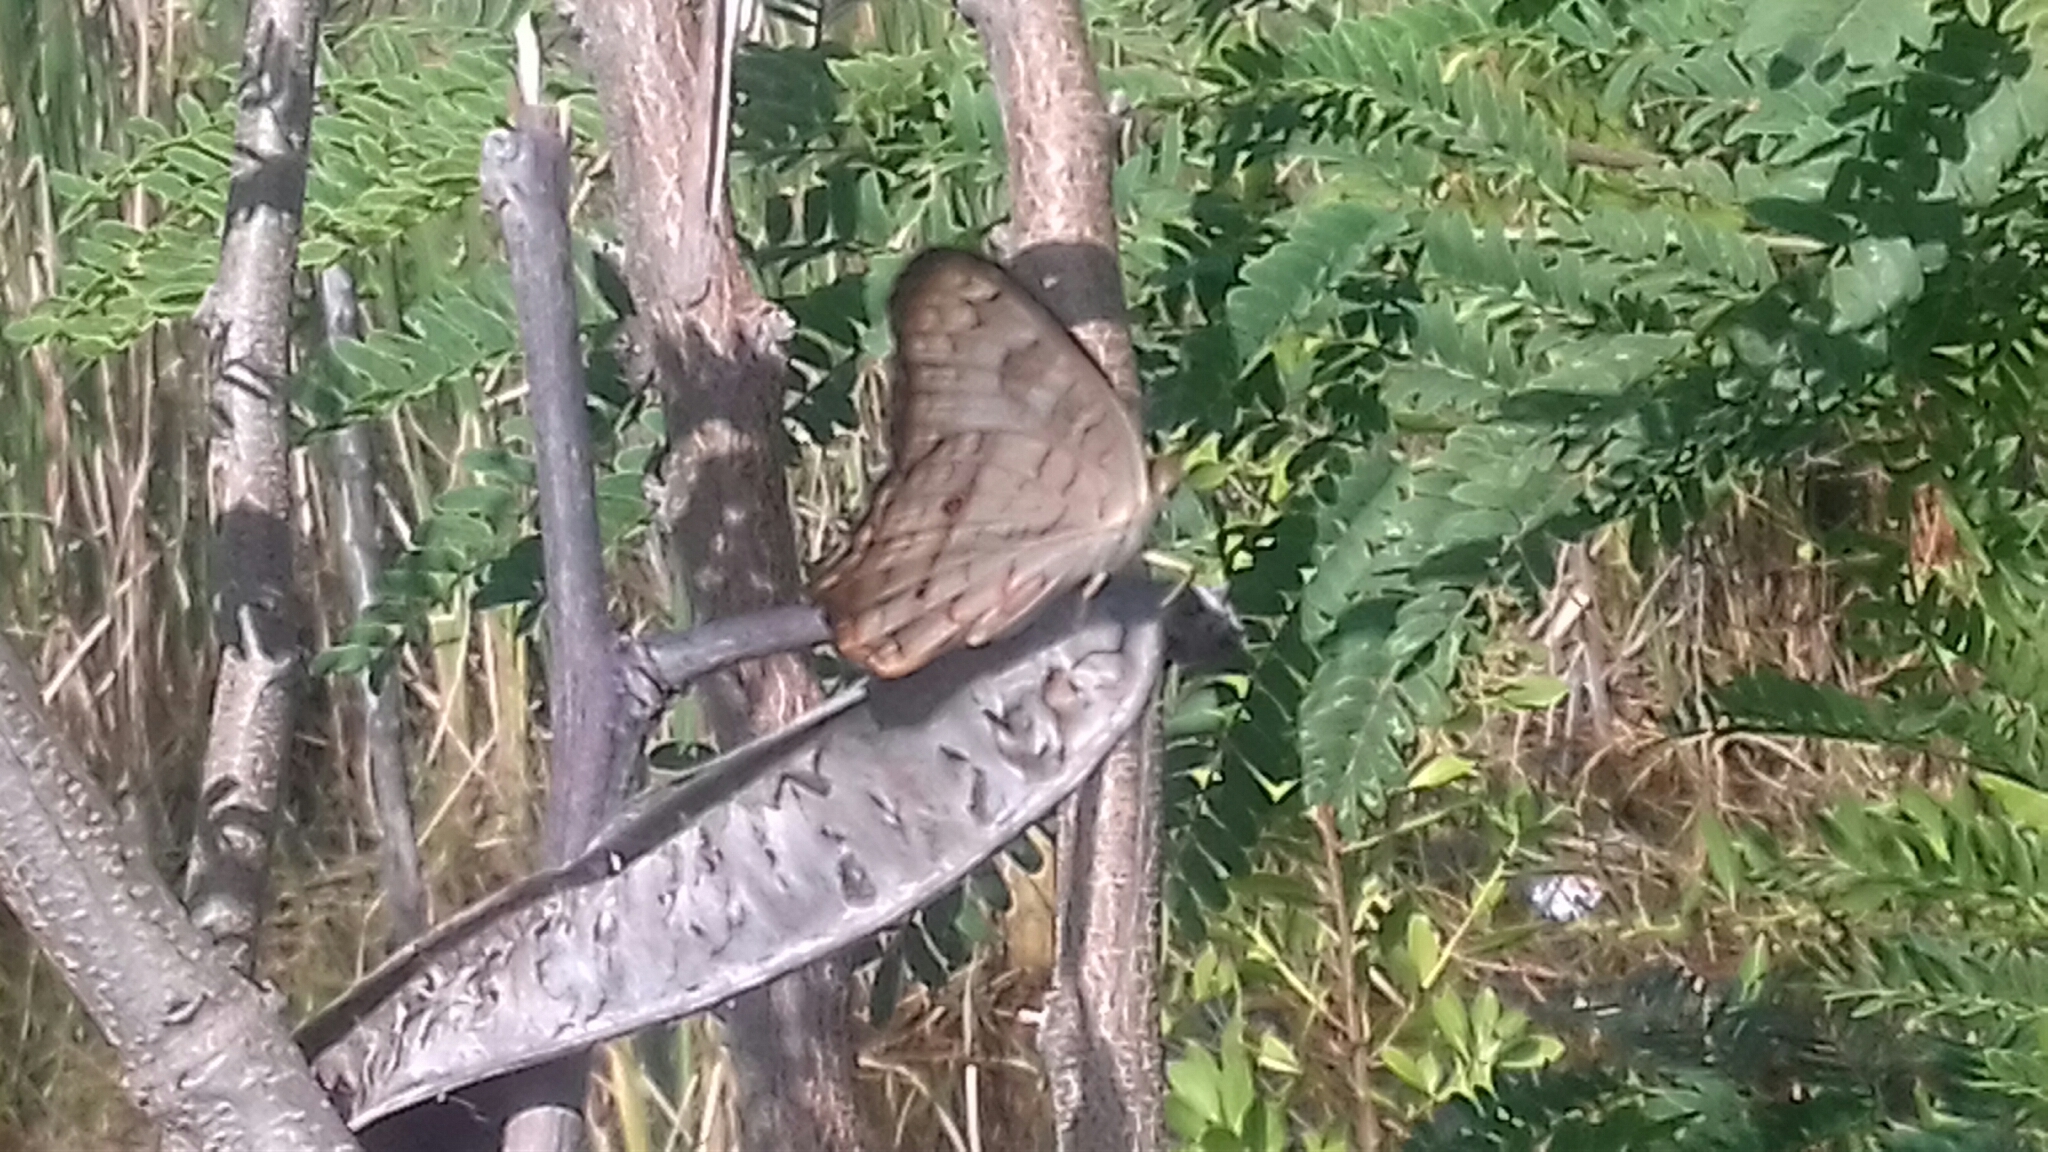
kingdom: Animalia
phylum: Arthropoda
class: Insecta
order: Lepidoptera
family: Nymphalidae
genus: Anartia
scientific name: Anartia jatrophae
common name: White peacock
